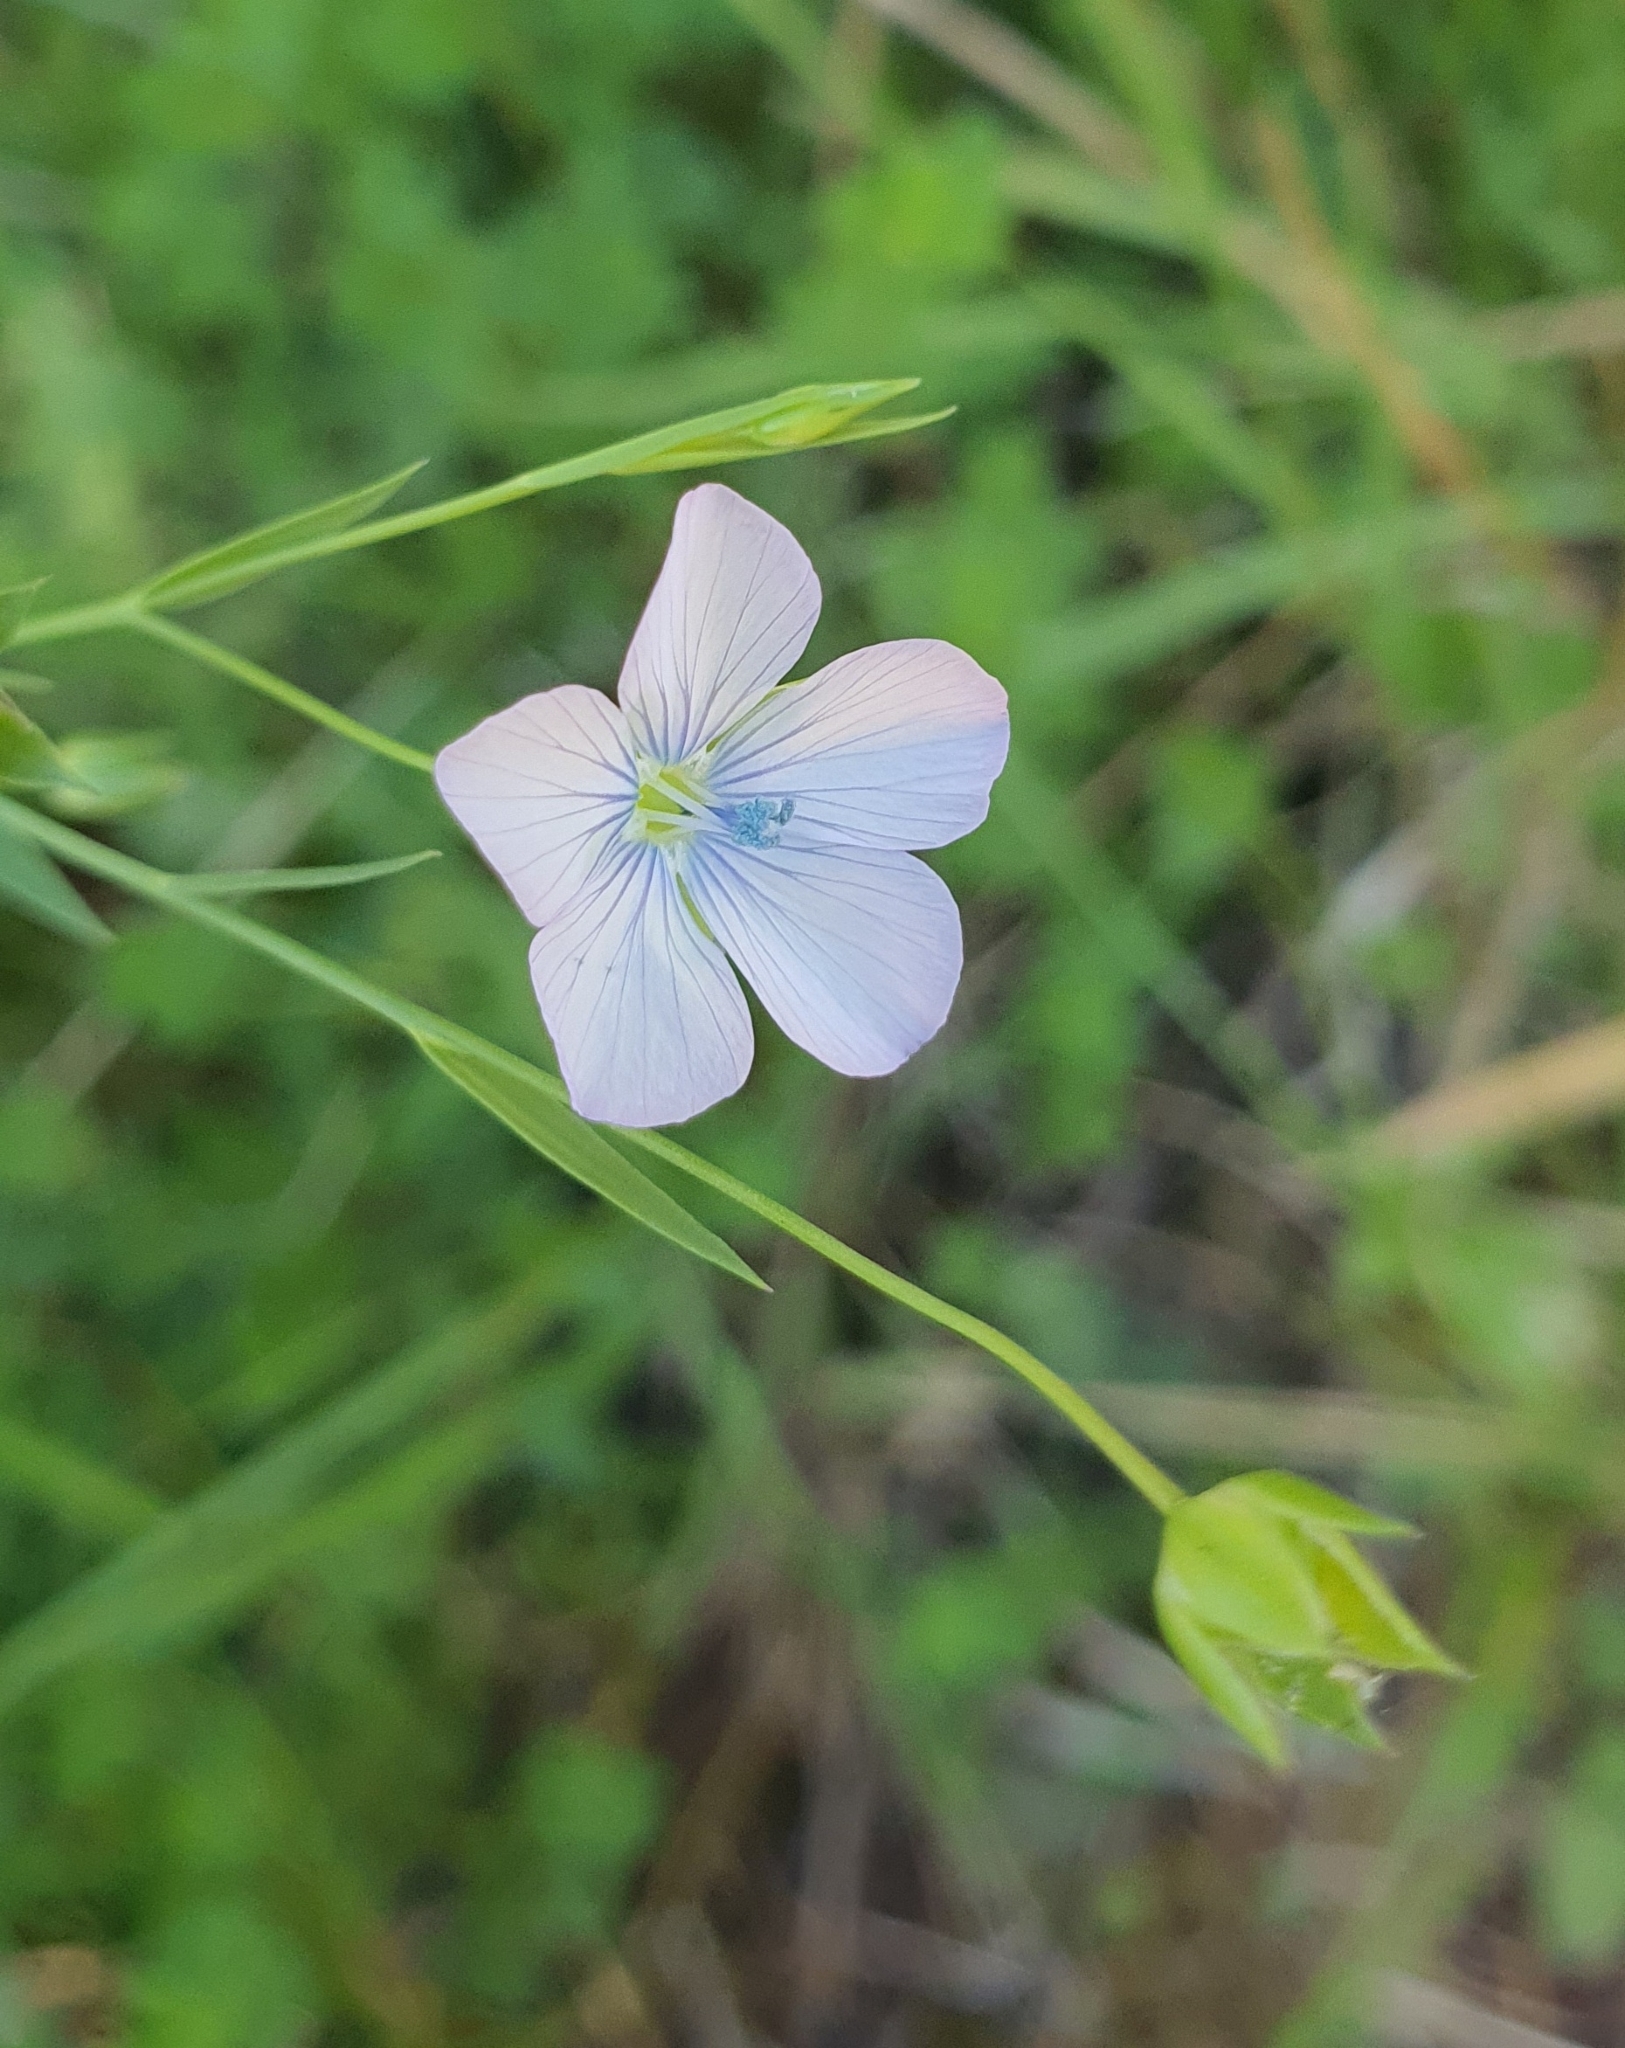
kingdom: Plantae
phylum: Tracheophyta
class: Magnoliopsida
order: Malpighiales
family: Linaceae
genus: Linum
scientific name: Linum bienne
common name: Pale flax
